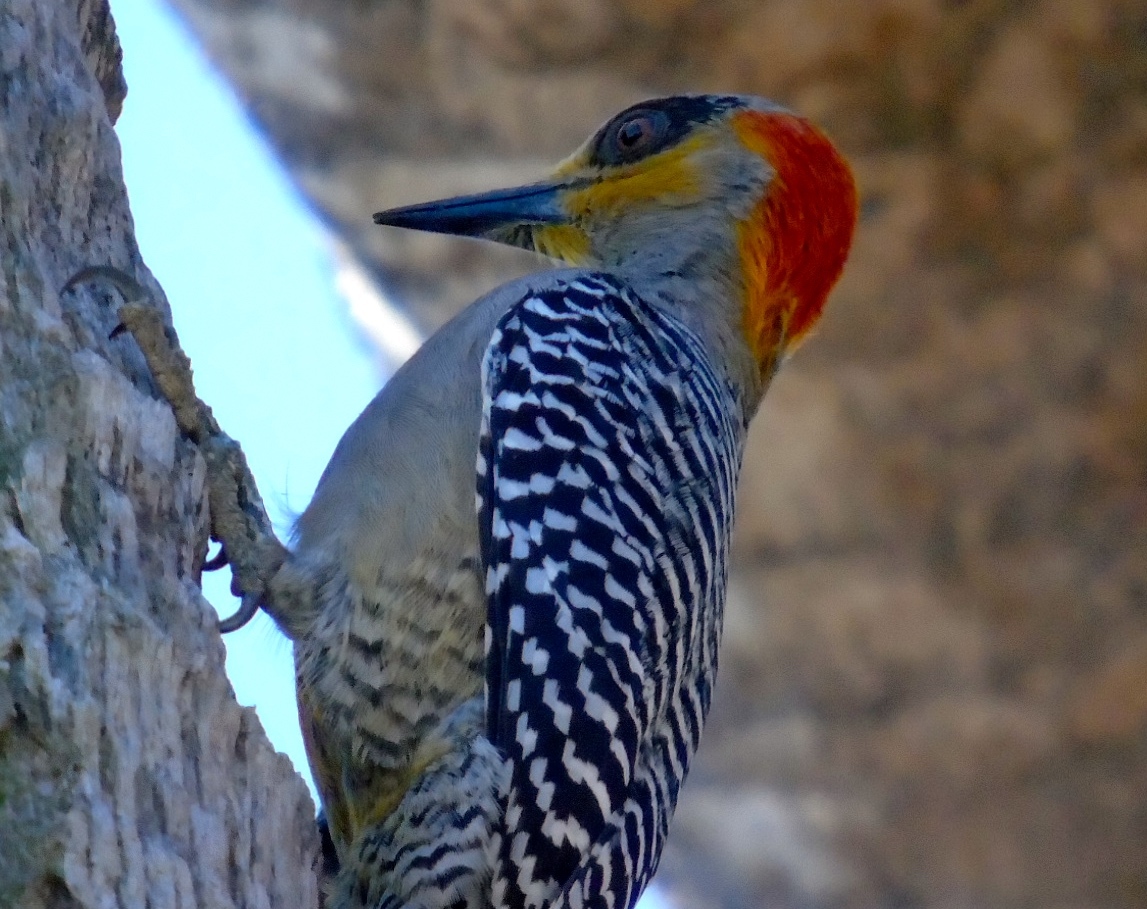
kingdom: Animalia
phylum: Chordata
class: Aves
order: Piciformes
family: Picidae
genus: Melanerpes
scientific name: Melanerpes chrysogenys
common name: Golden-cheeked woodpecker
